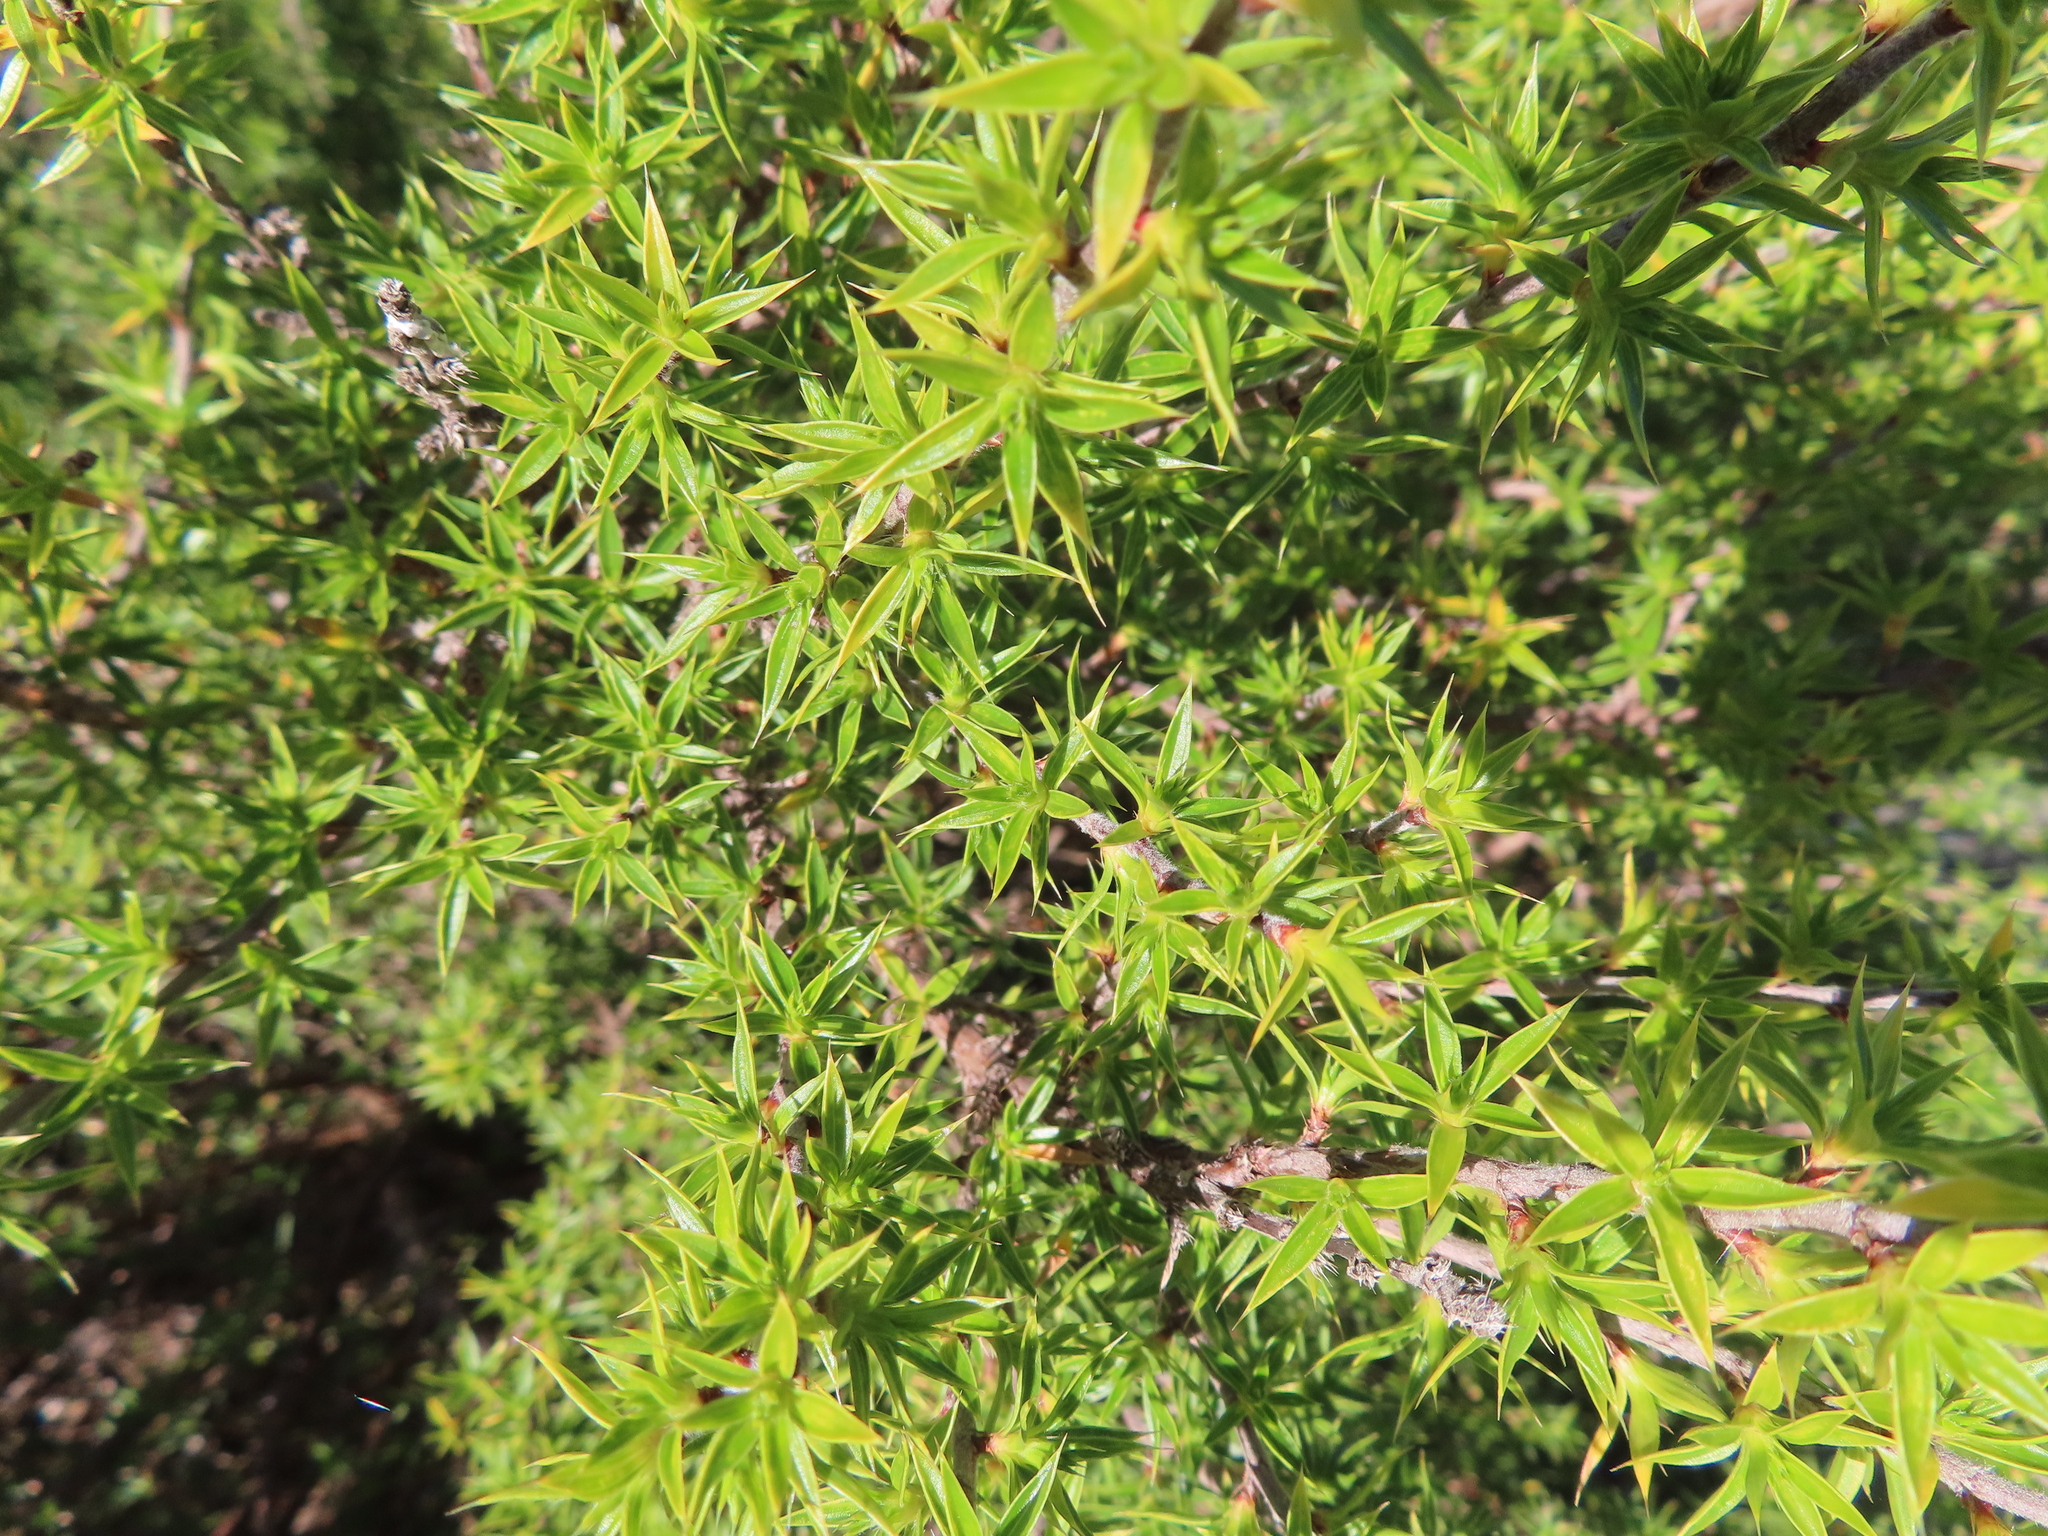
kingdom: Plantae
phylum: Tracheophyta
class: Magnoliopsida
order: Rosales
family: Rosaceae
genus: Cliffortia
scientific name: Cliffortia ruscifolia
